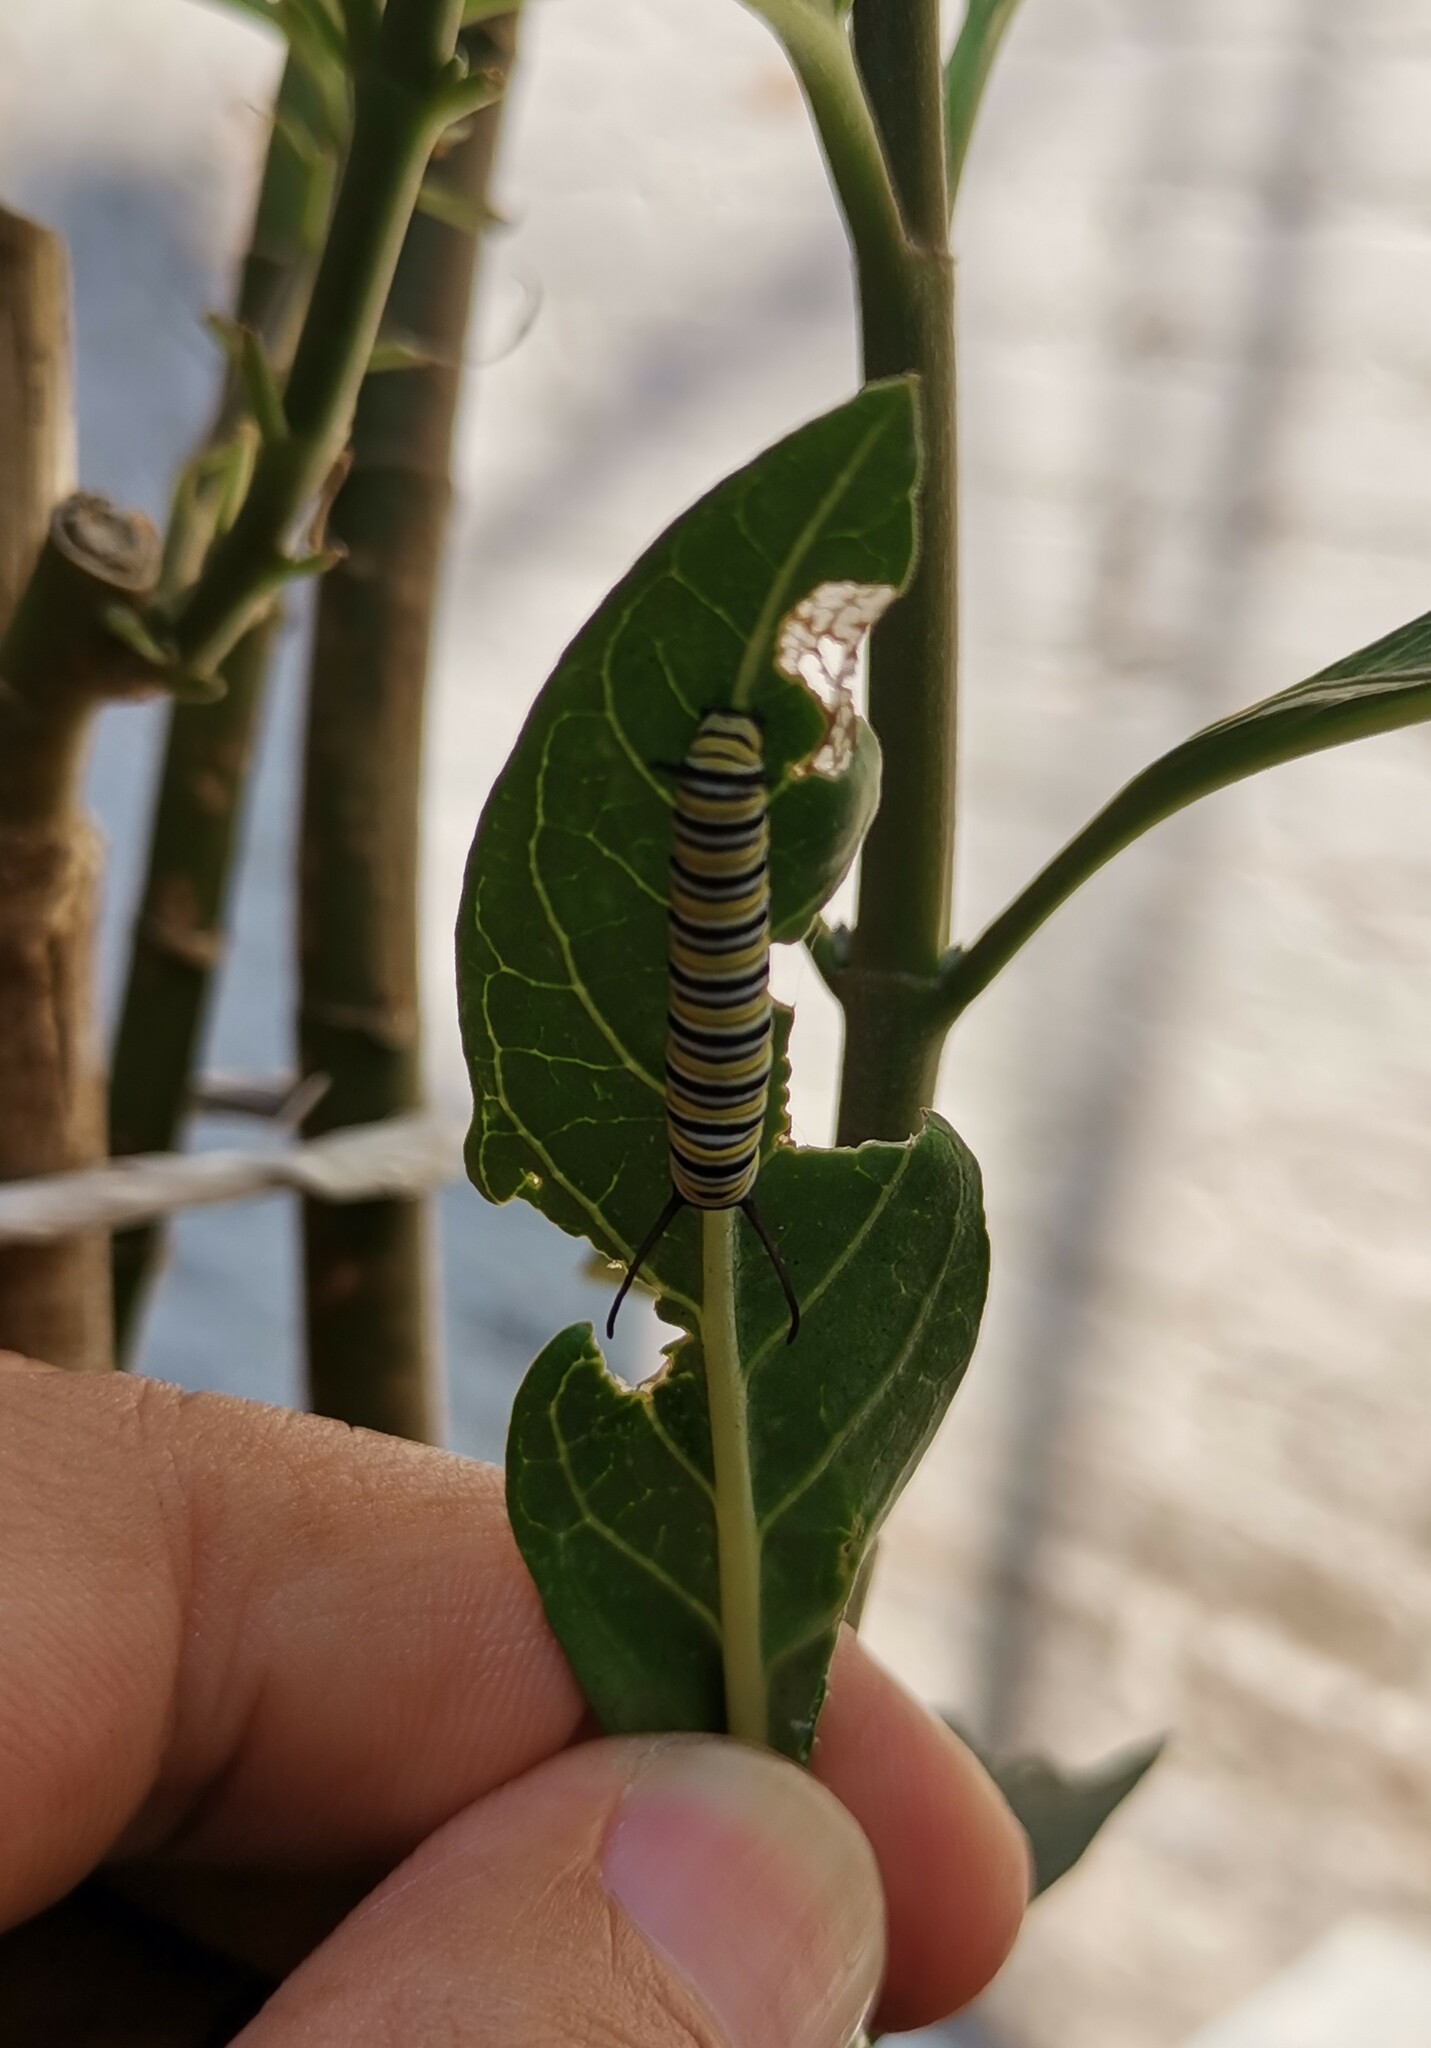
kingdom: Animalia
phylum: Arthropoda
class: Insecta
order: Lepidoptera
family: Nymphalidae
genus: Danaus
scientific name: Danaus plexippus
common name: Monarch
